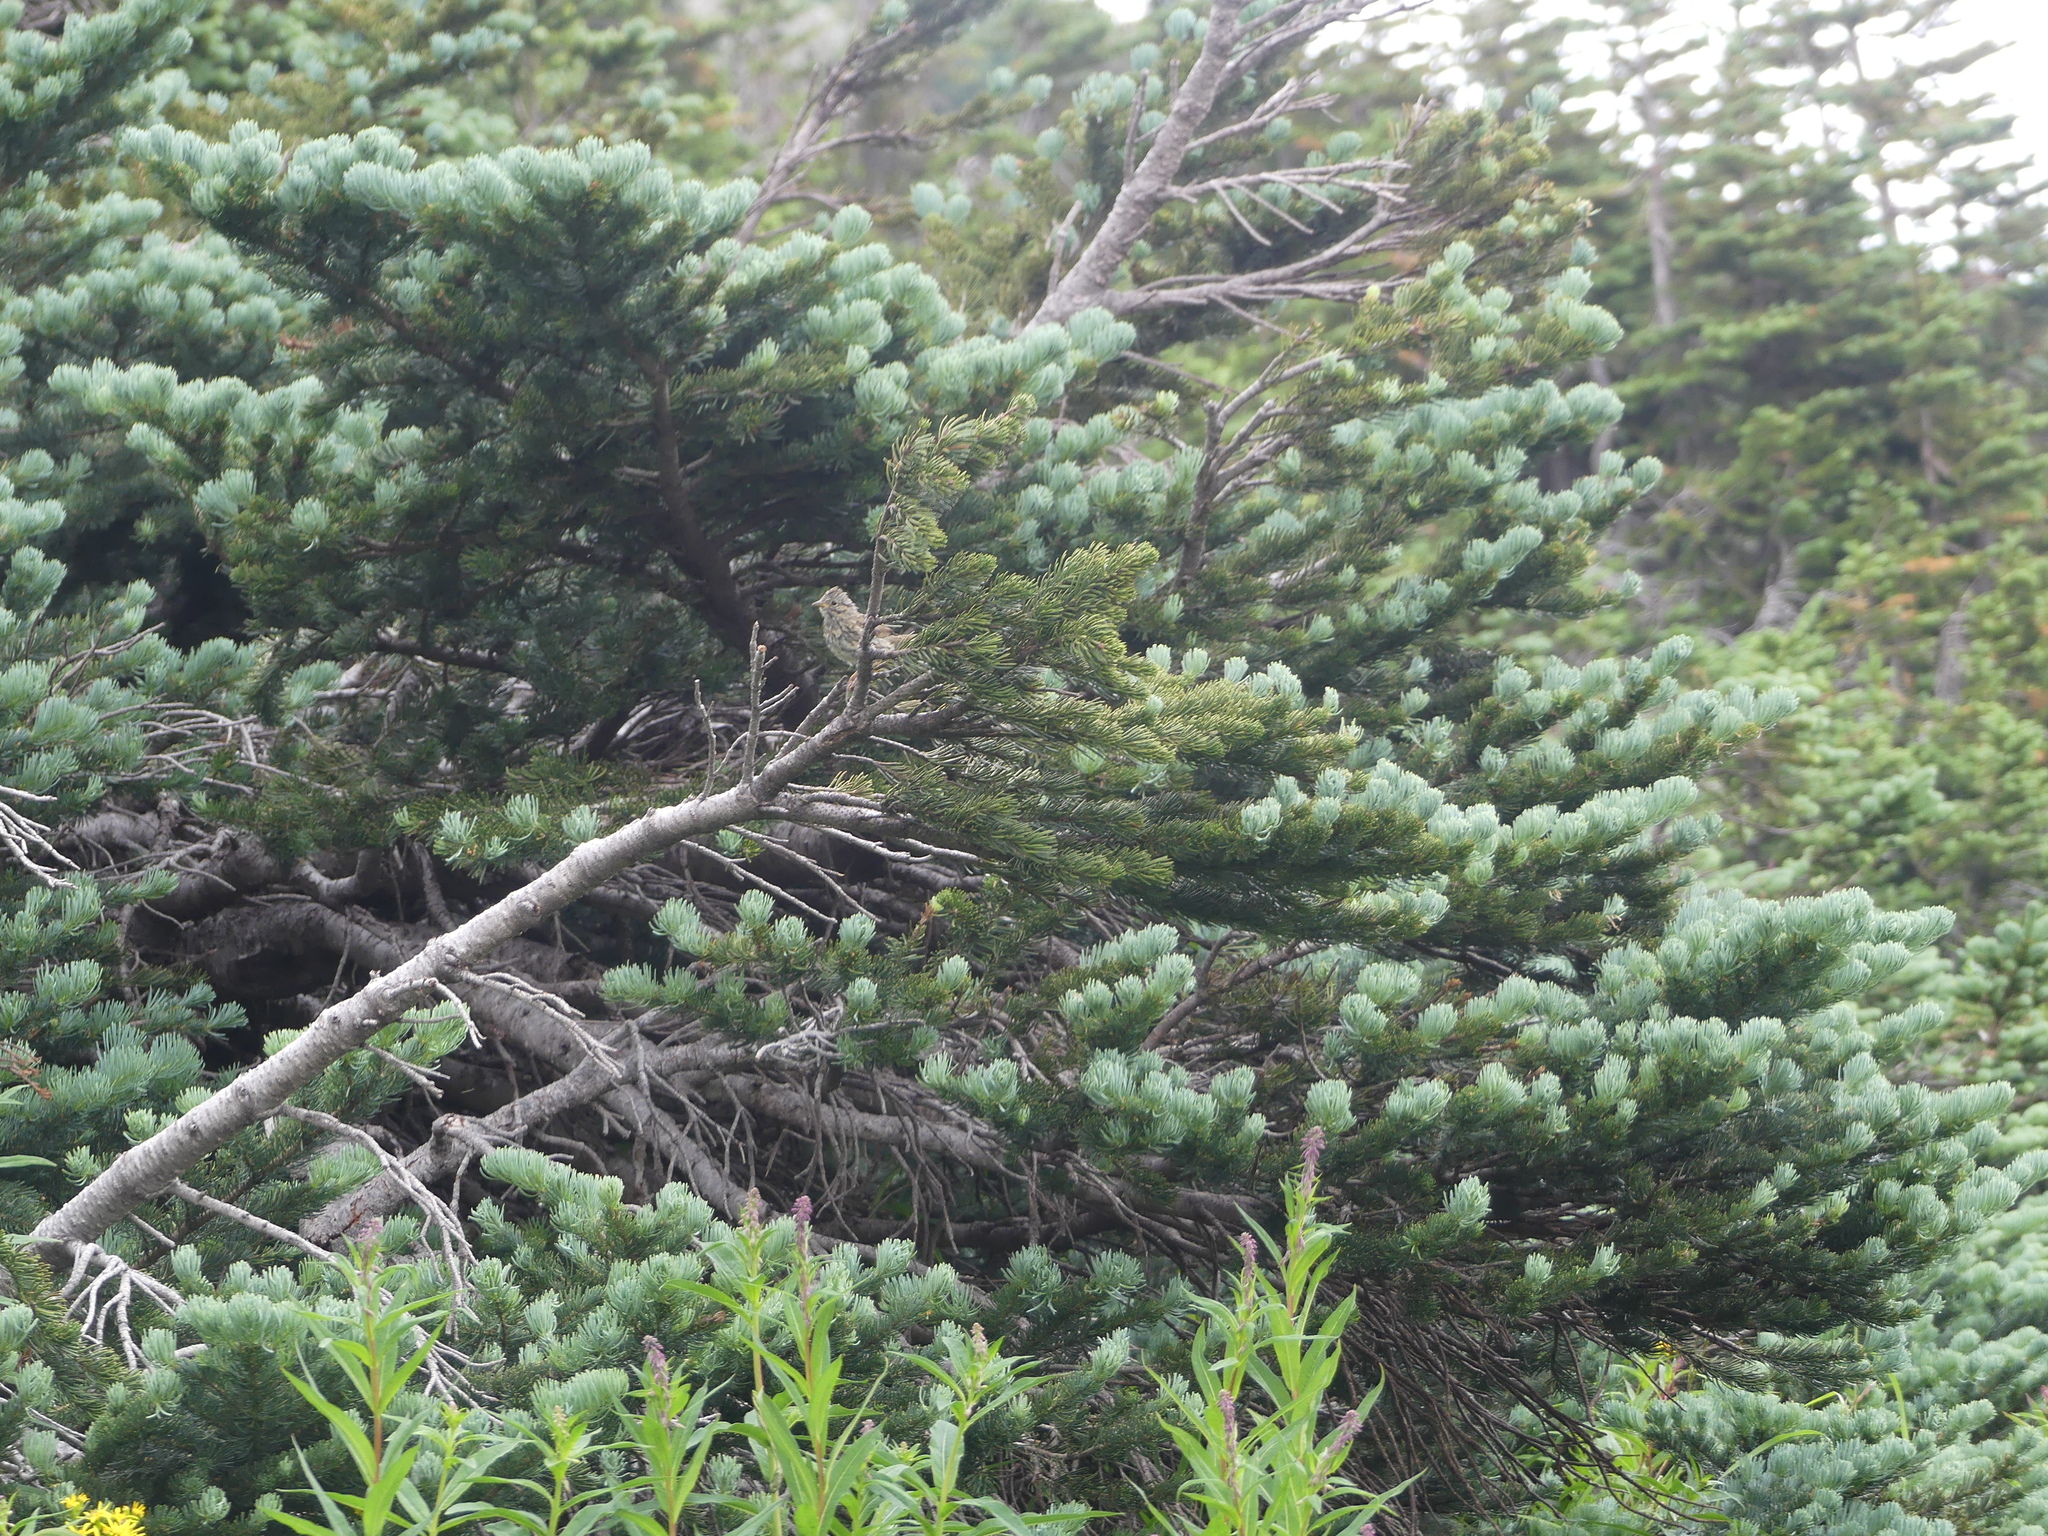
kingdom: Animalia
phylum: Chordata
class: Aves
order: Passeriformes
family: Passerellidae
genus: Melospiza
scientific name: Melospiza lincolnii
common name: Lincoln's sparrow
